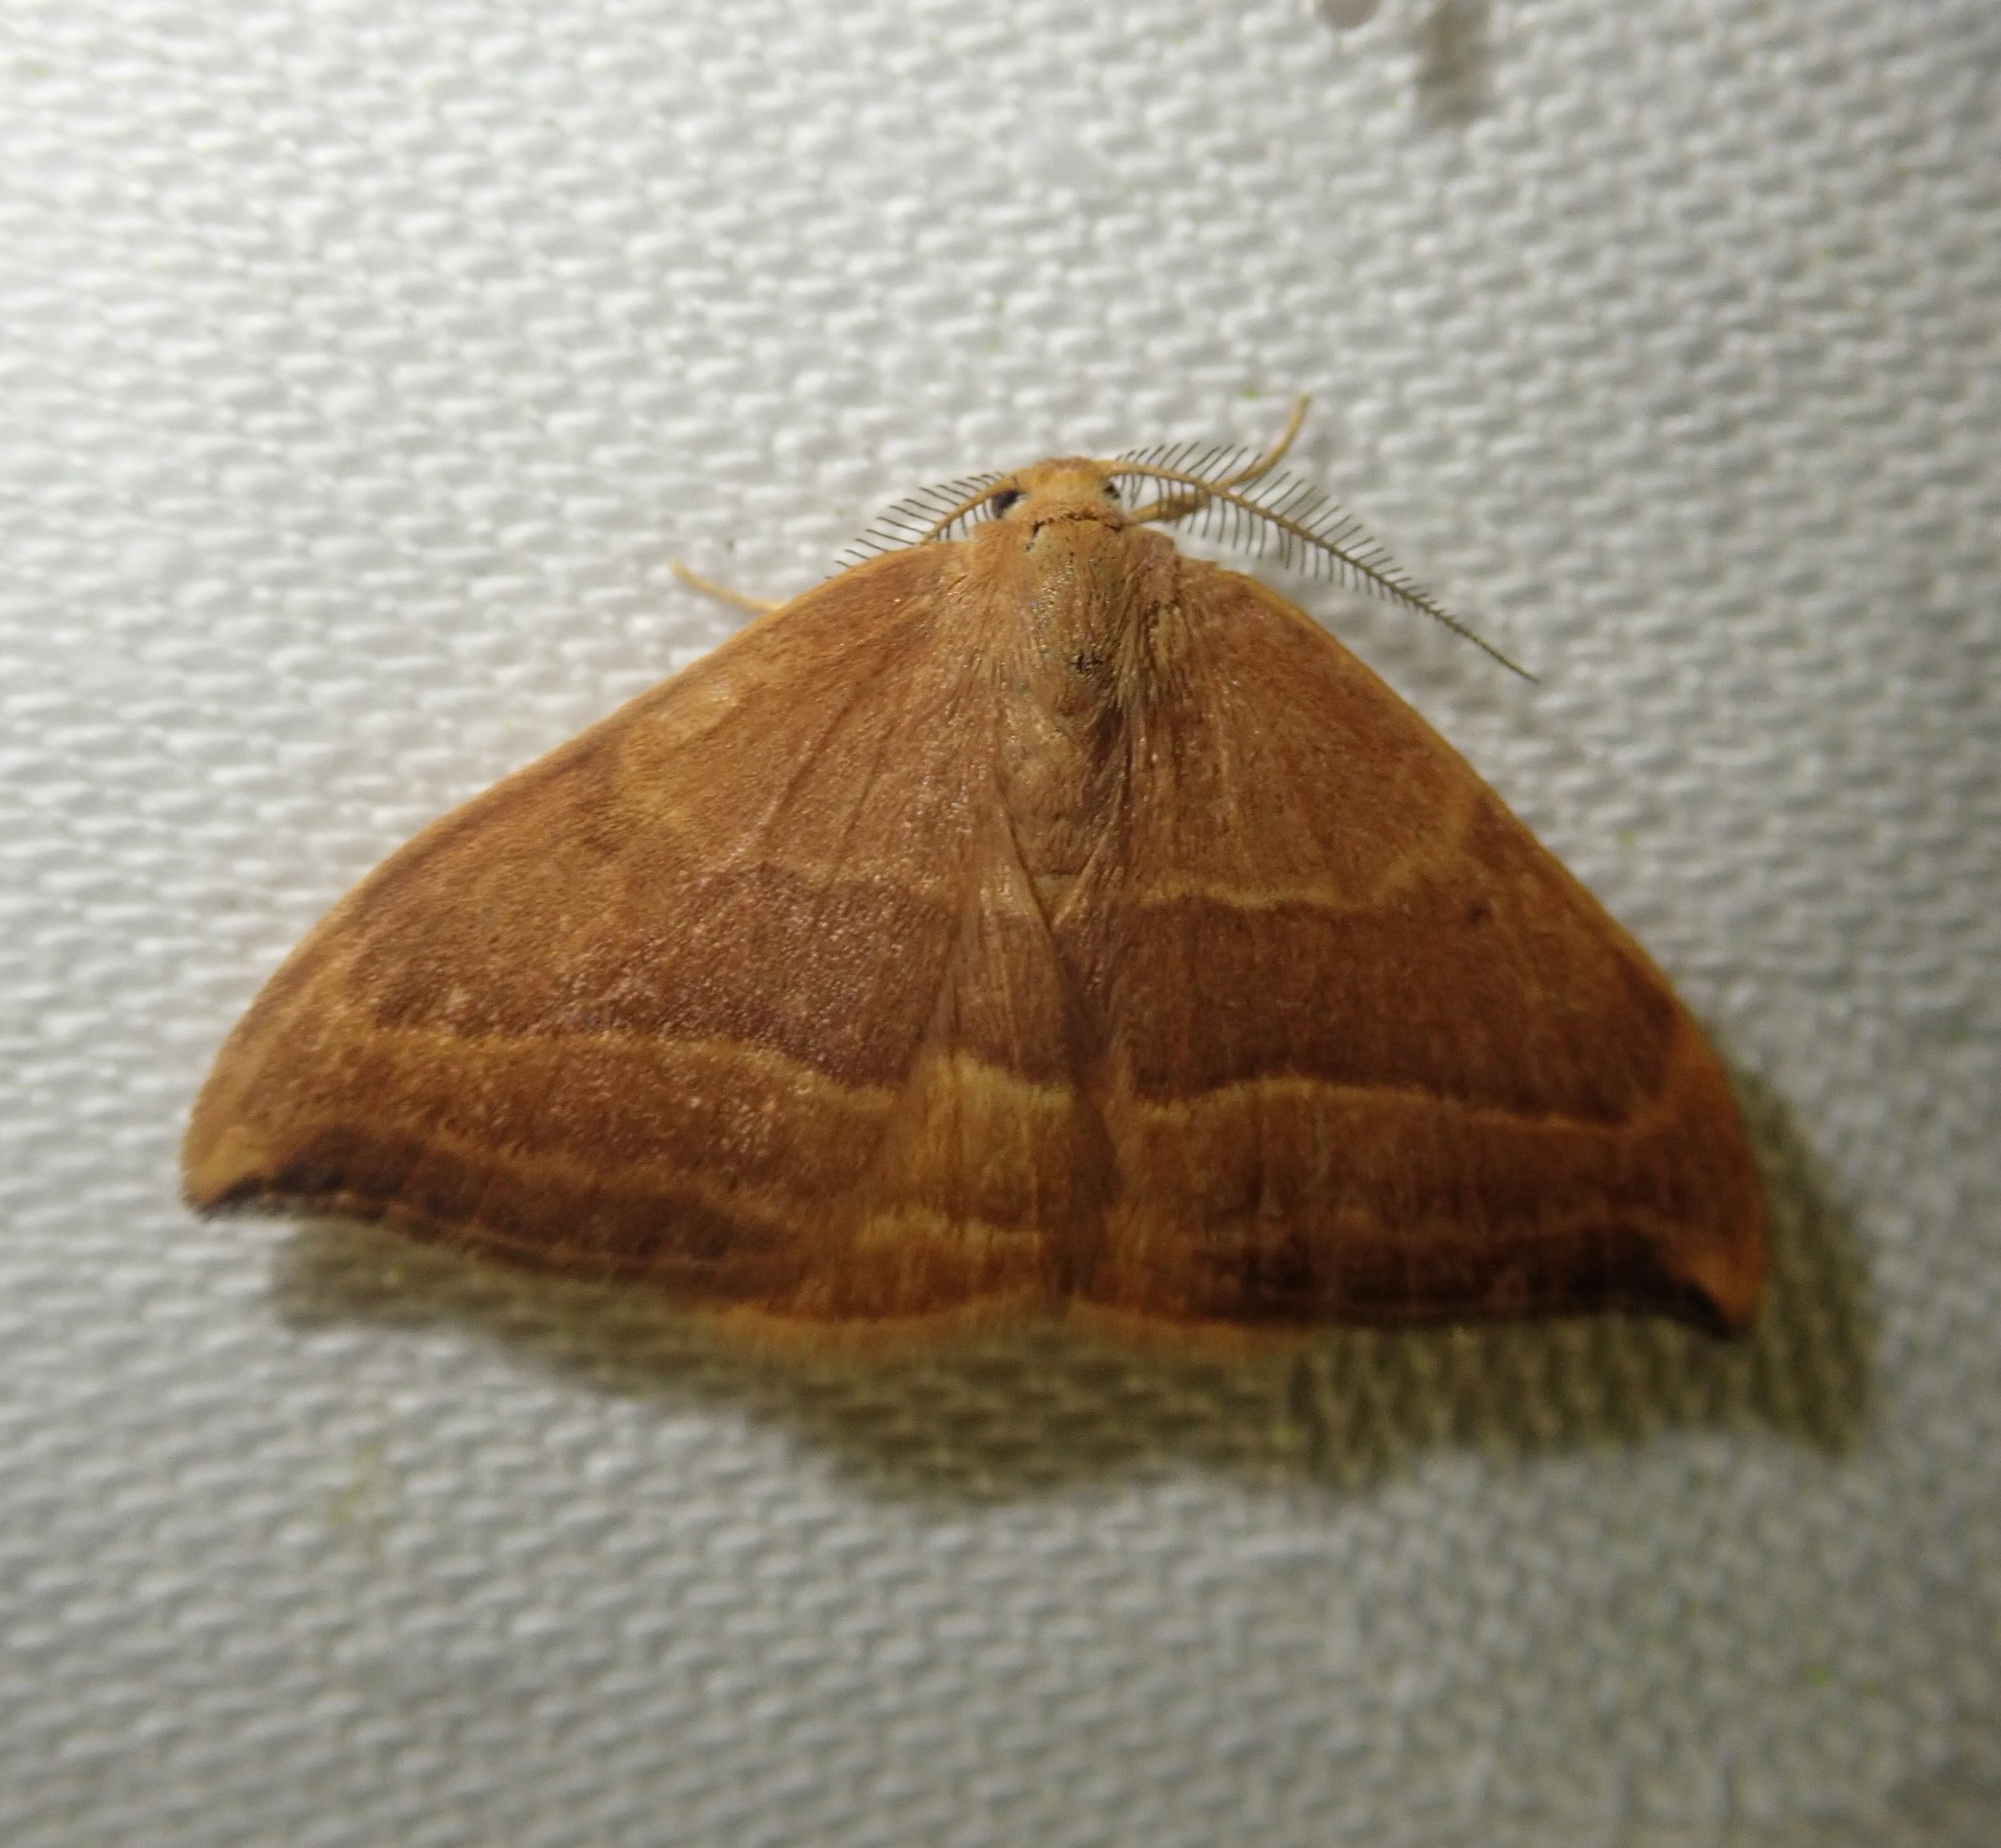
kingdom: Animalia
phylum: Arthropoda
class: Insecta
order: Lepidoptera
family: Drepanidae
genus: Watsonalla
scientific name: Watsonalla cultraria
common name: Barred hook-tip
